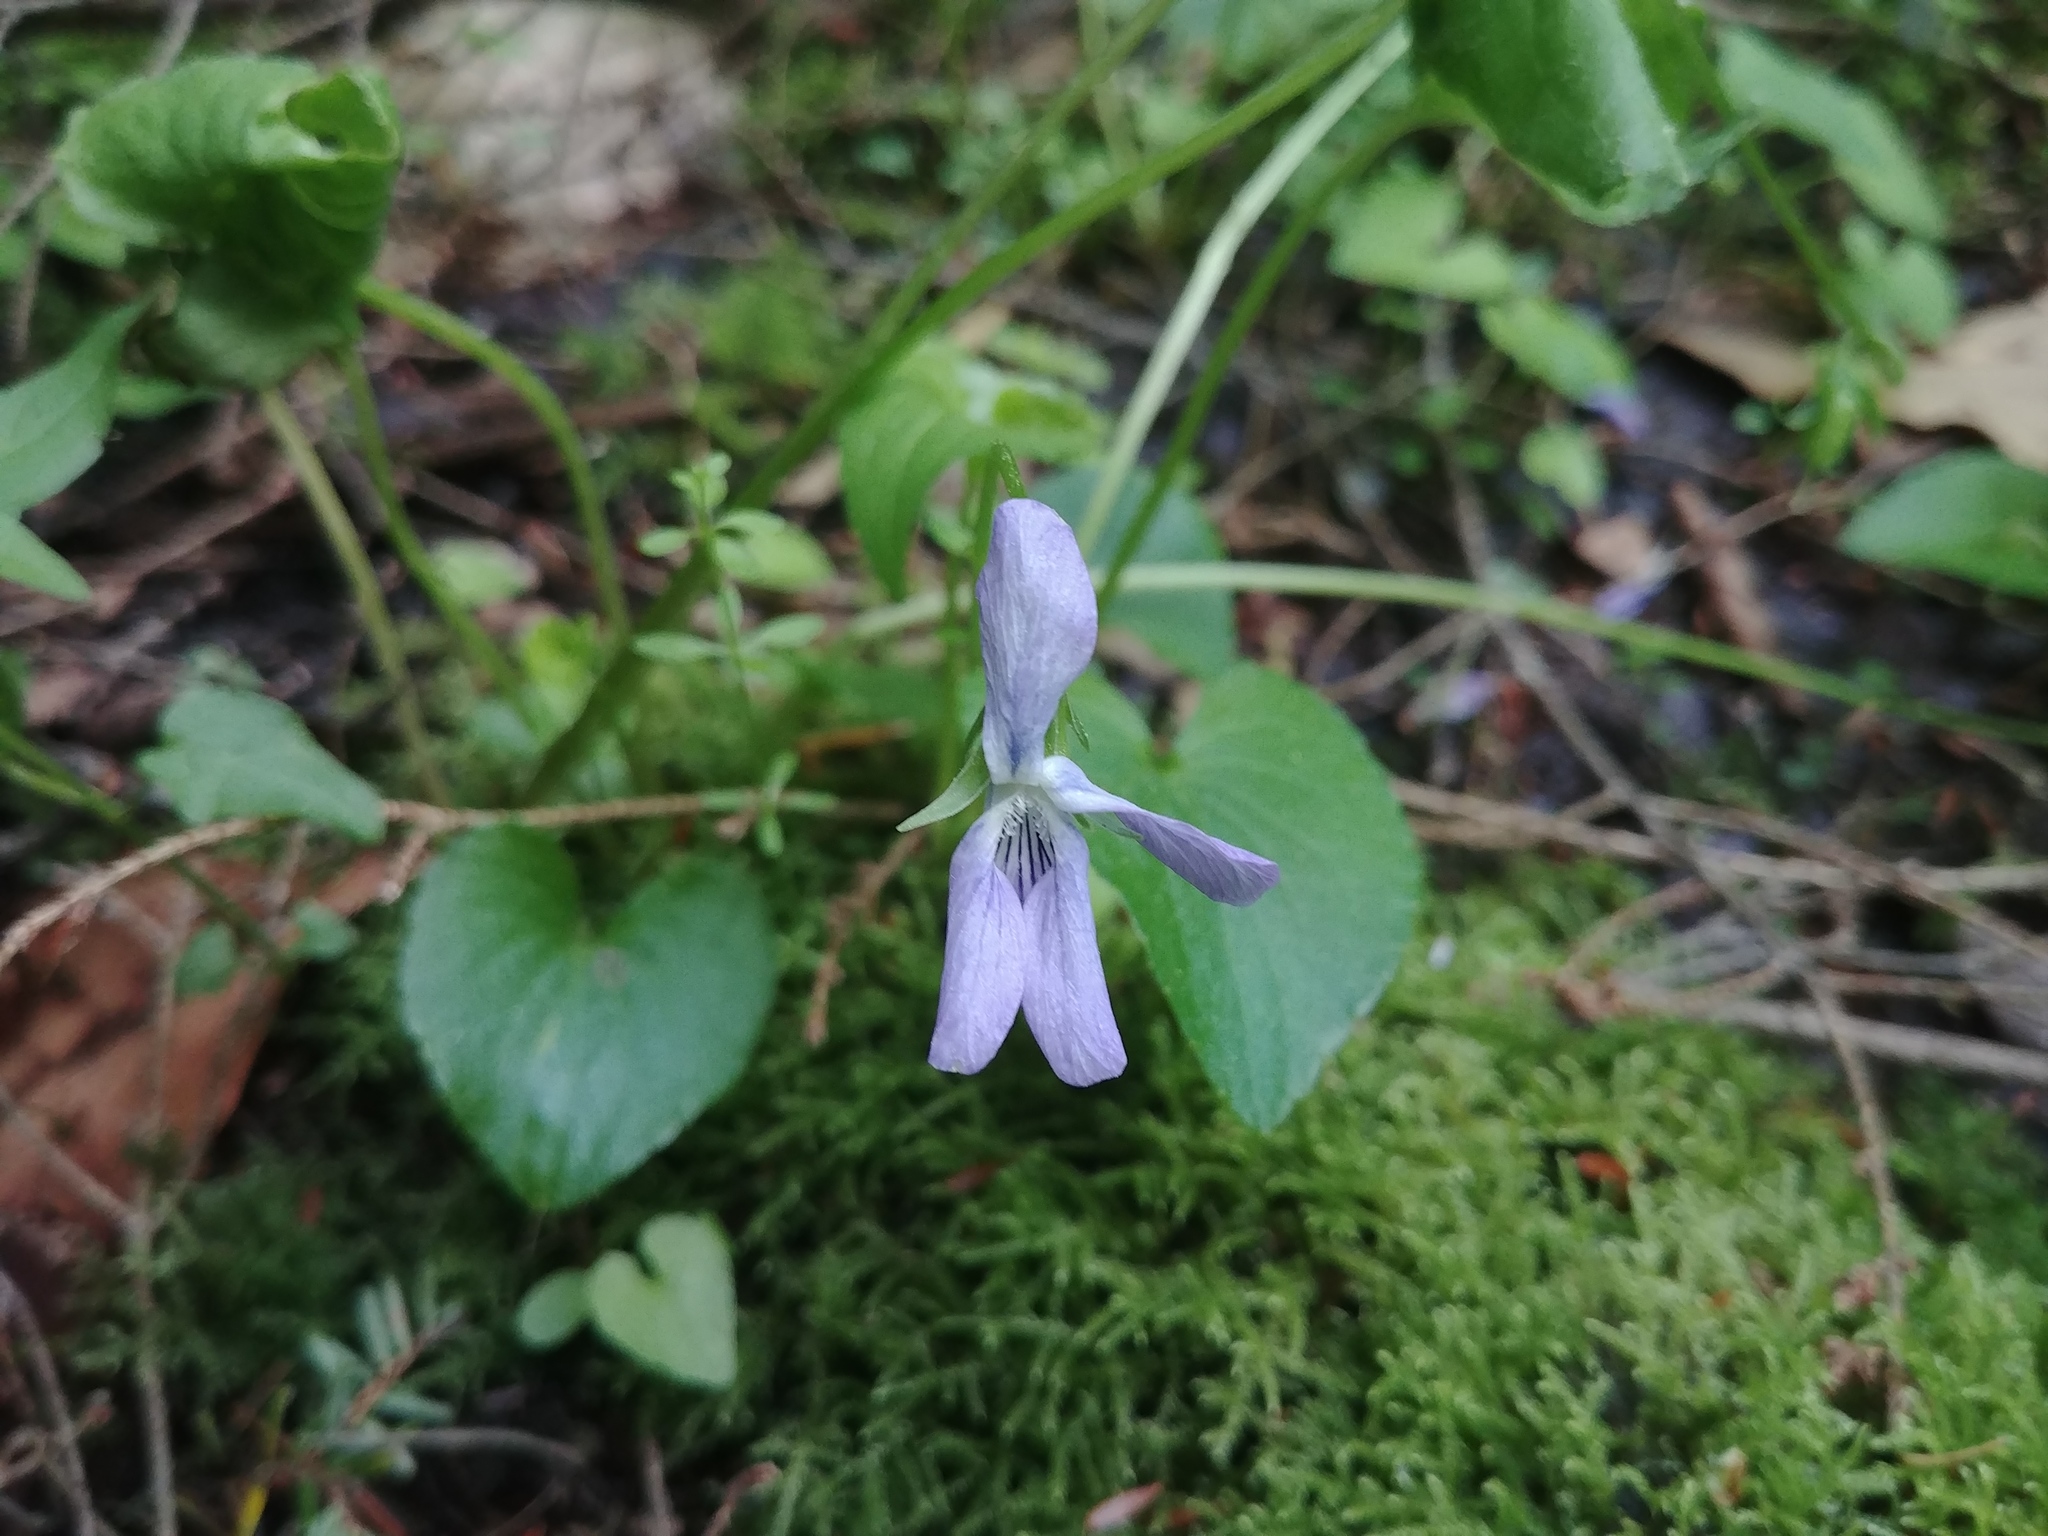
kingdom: Plantae
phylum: Tracheophyta
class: Magnoliopsida
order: Malpighiales
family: Violaceae
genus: Viola
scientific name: Viola cucullata
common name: Marsh blue violet
